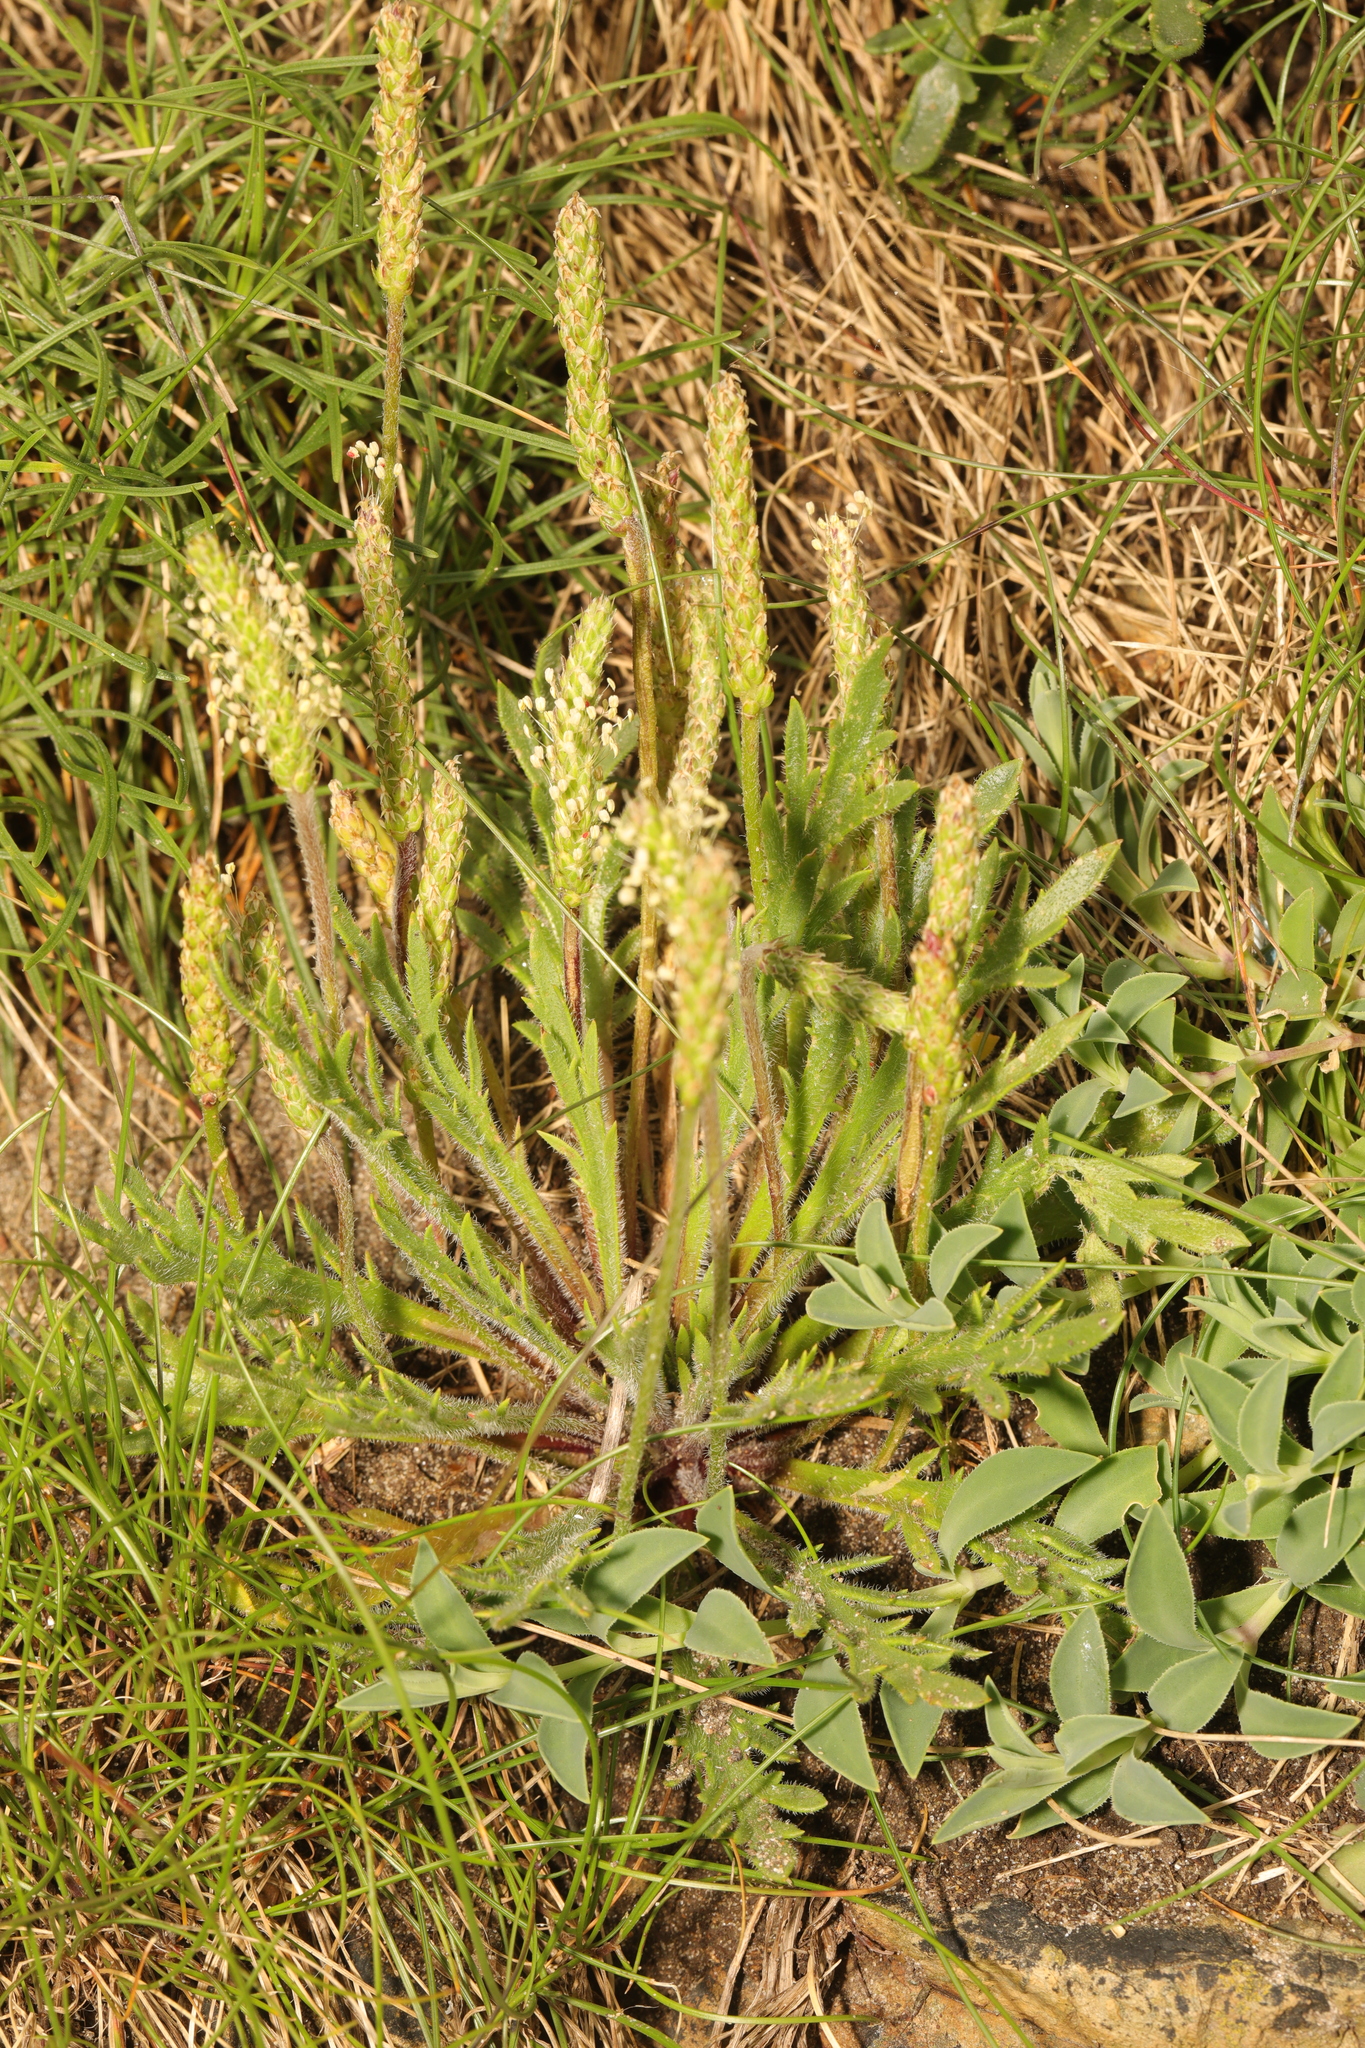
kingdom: Plantae
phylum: Tracheophyta
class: Magnoliopsida
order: Lamiales
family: Plantaginaceae
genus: Plantago
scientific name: Plantago coronopus
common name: Buck's-horn plantain
